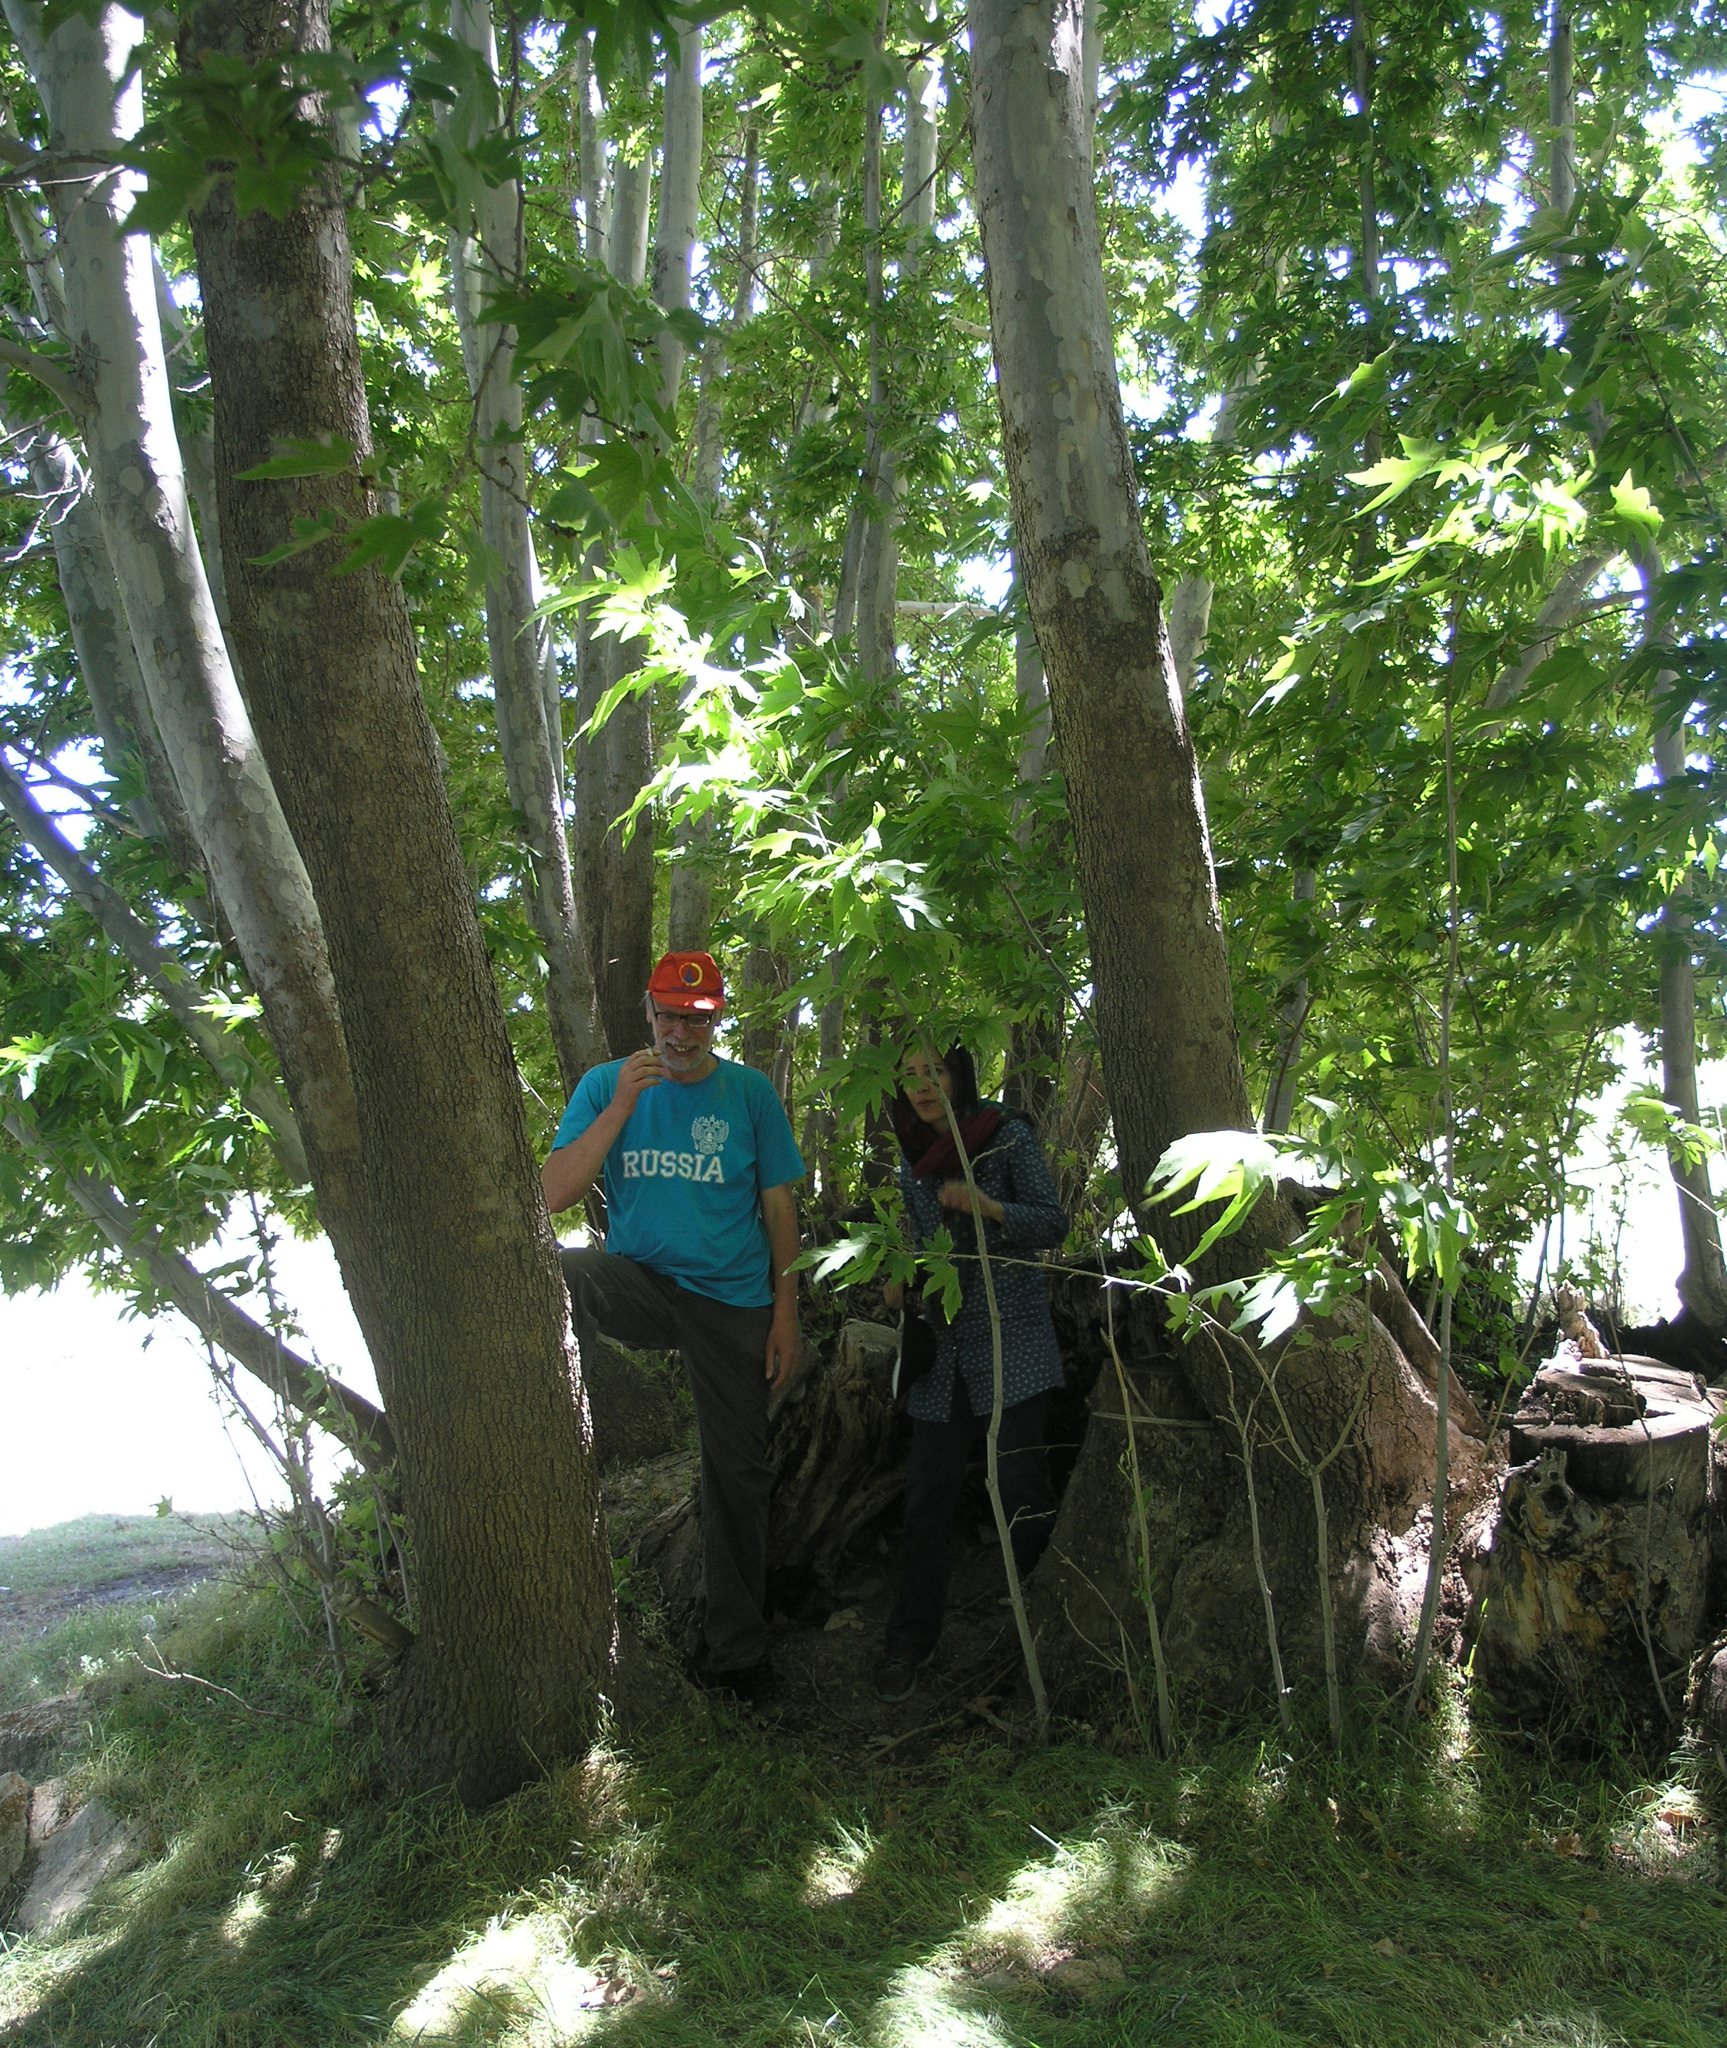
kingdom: Plantae
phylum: Tracheophyta
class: Magnoliopsida
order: Proteales
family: Platanaceae
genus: Platanus
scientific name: Platanus orientalis
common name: Oriental plane
